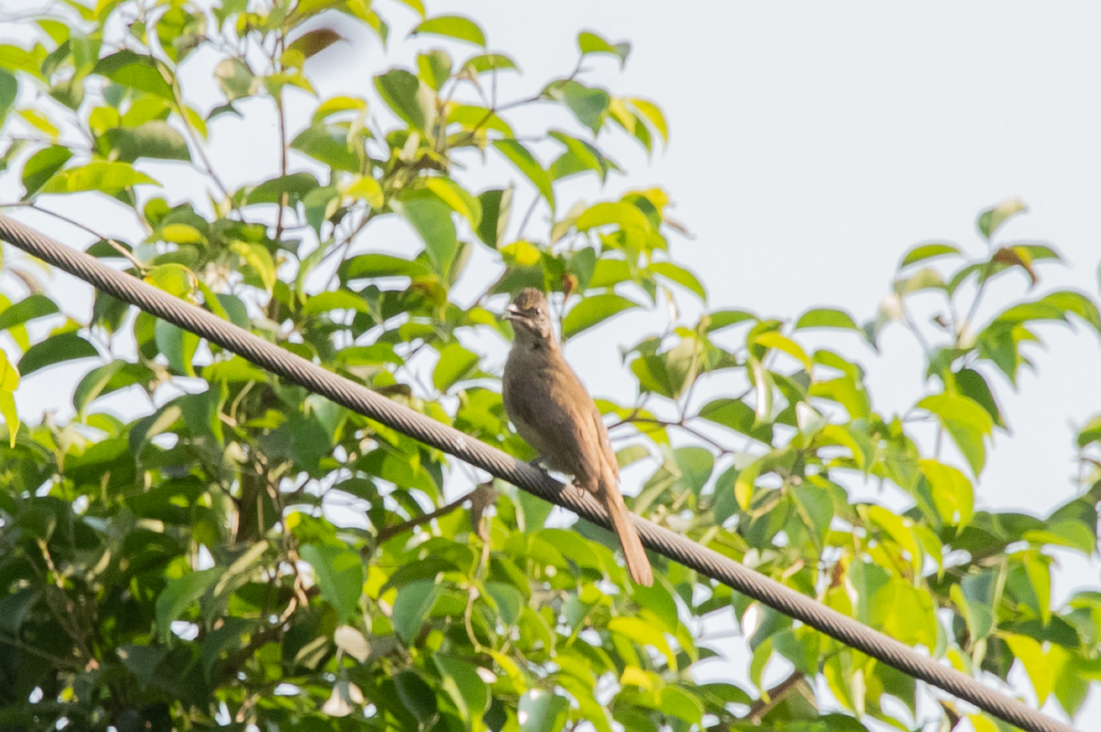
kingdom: Animalia
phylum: Chordata
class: Aves
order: Passeriformes
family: Pycnonotidae
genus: Pycnonotus
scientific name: Pycnonotus blanfordi
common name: Streak-eared bulbul
